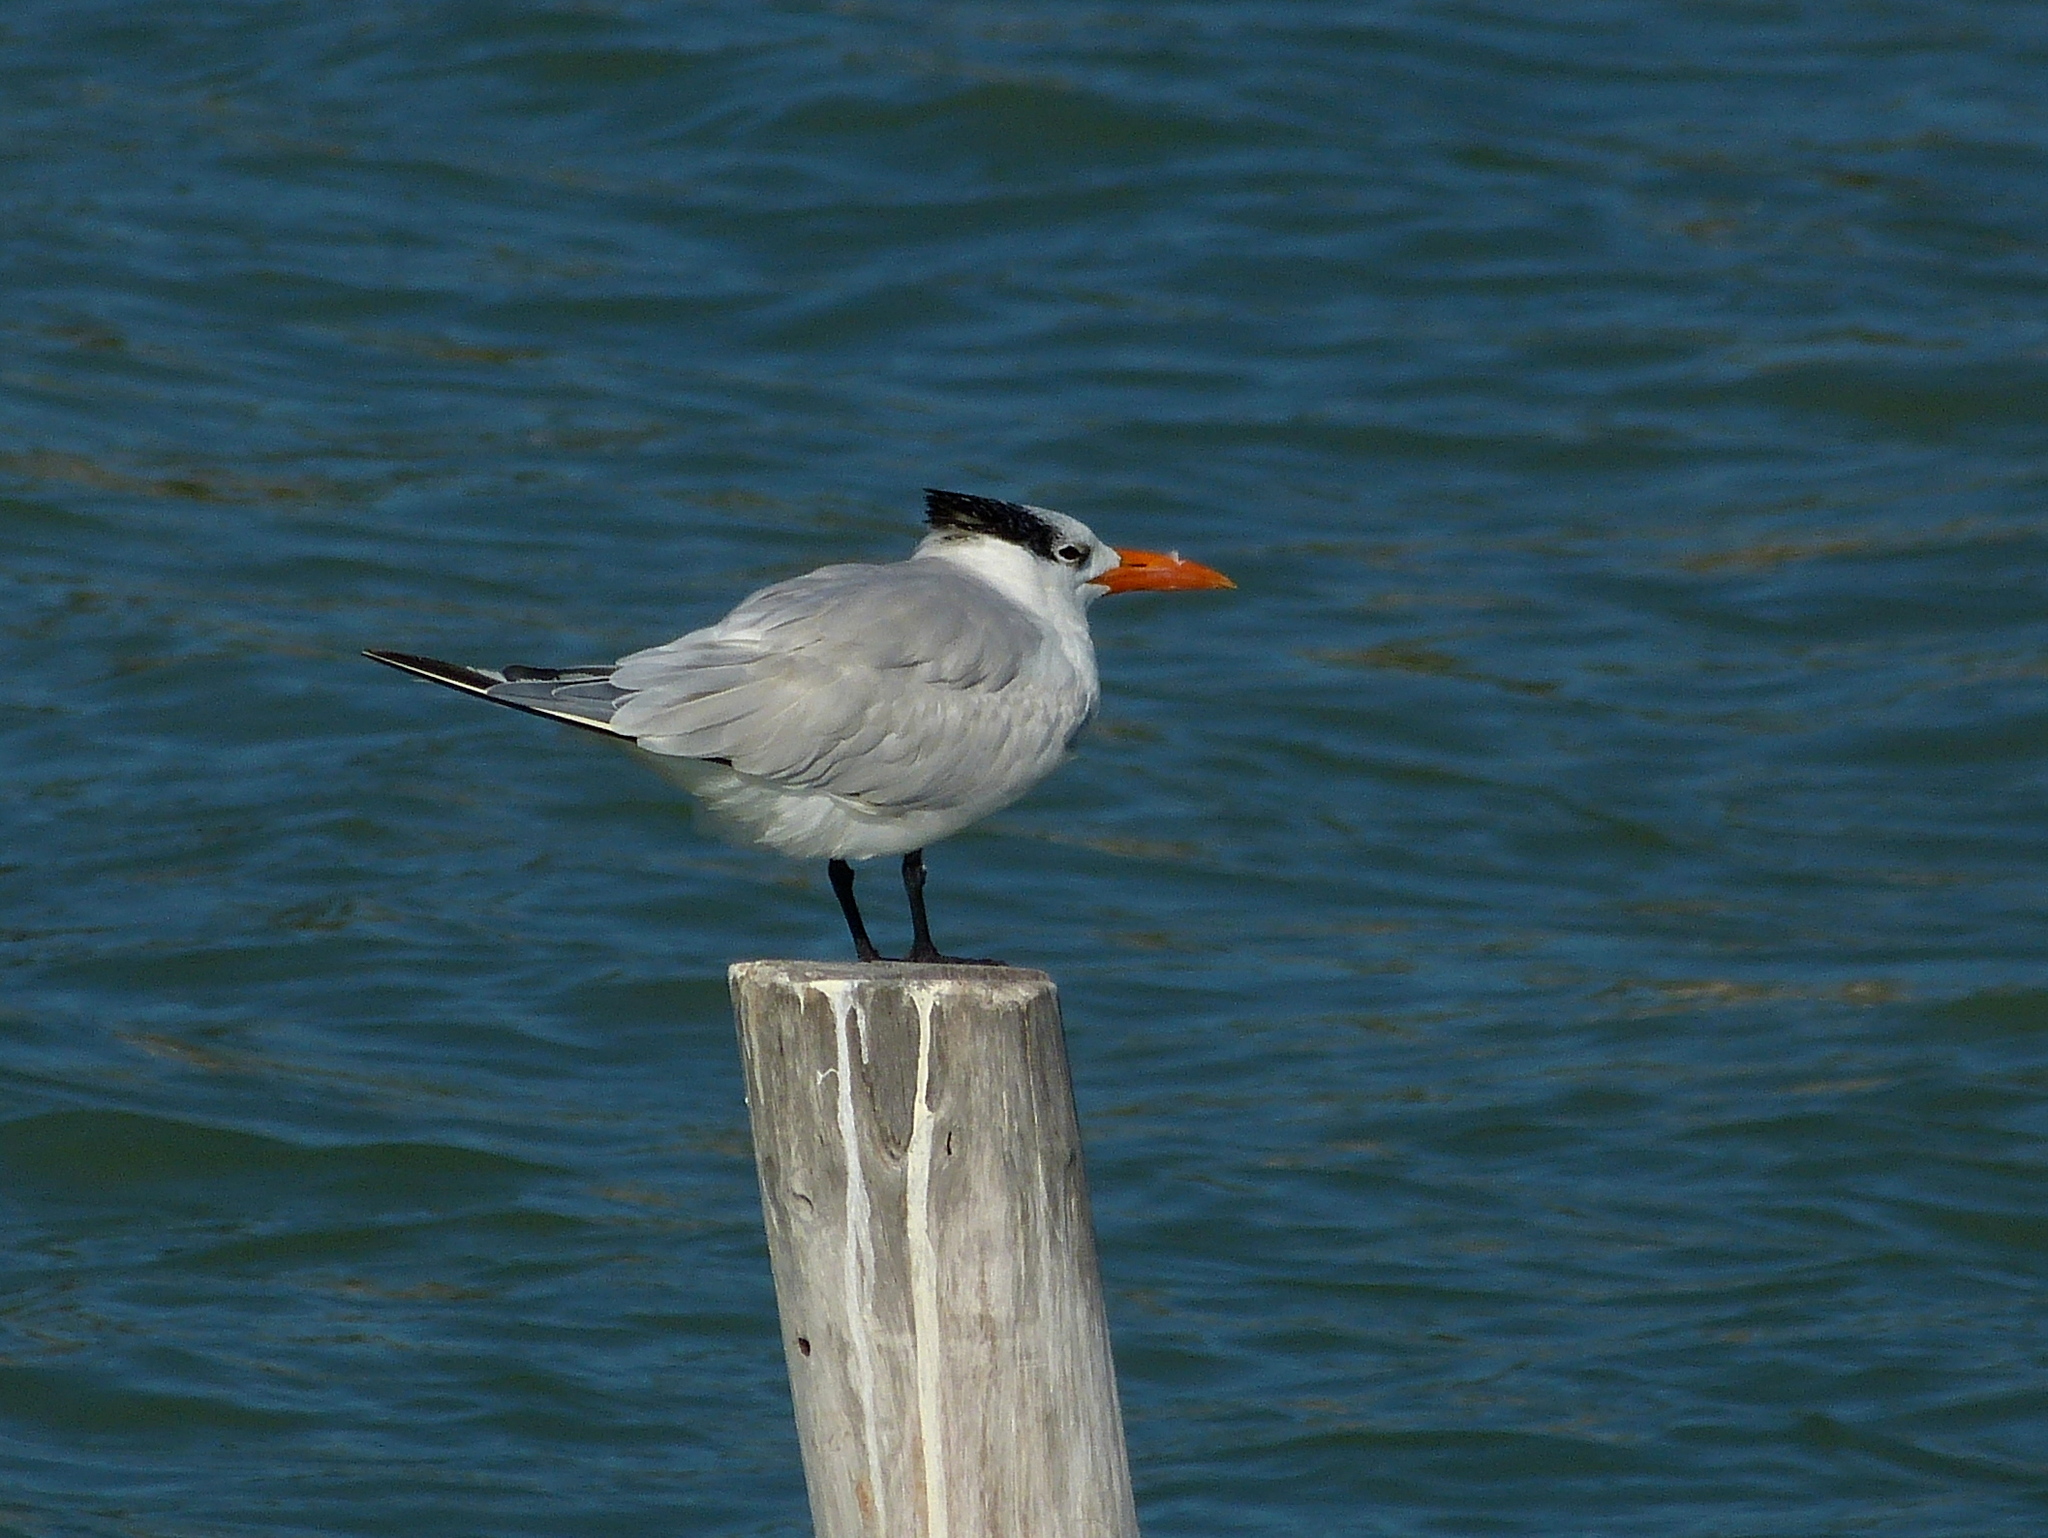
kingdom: Animalia
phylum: Chordata
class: Aves
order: Charadriiformes
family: Laridae
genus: Thalasseus
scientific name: Thalasseus maximus
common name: Royal tern
